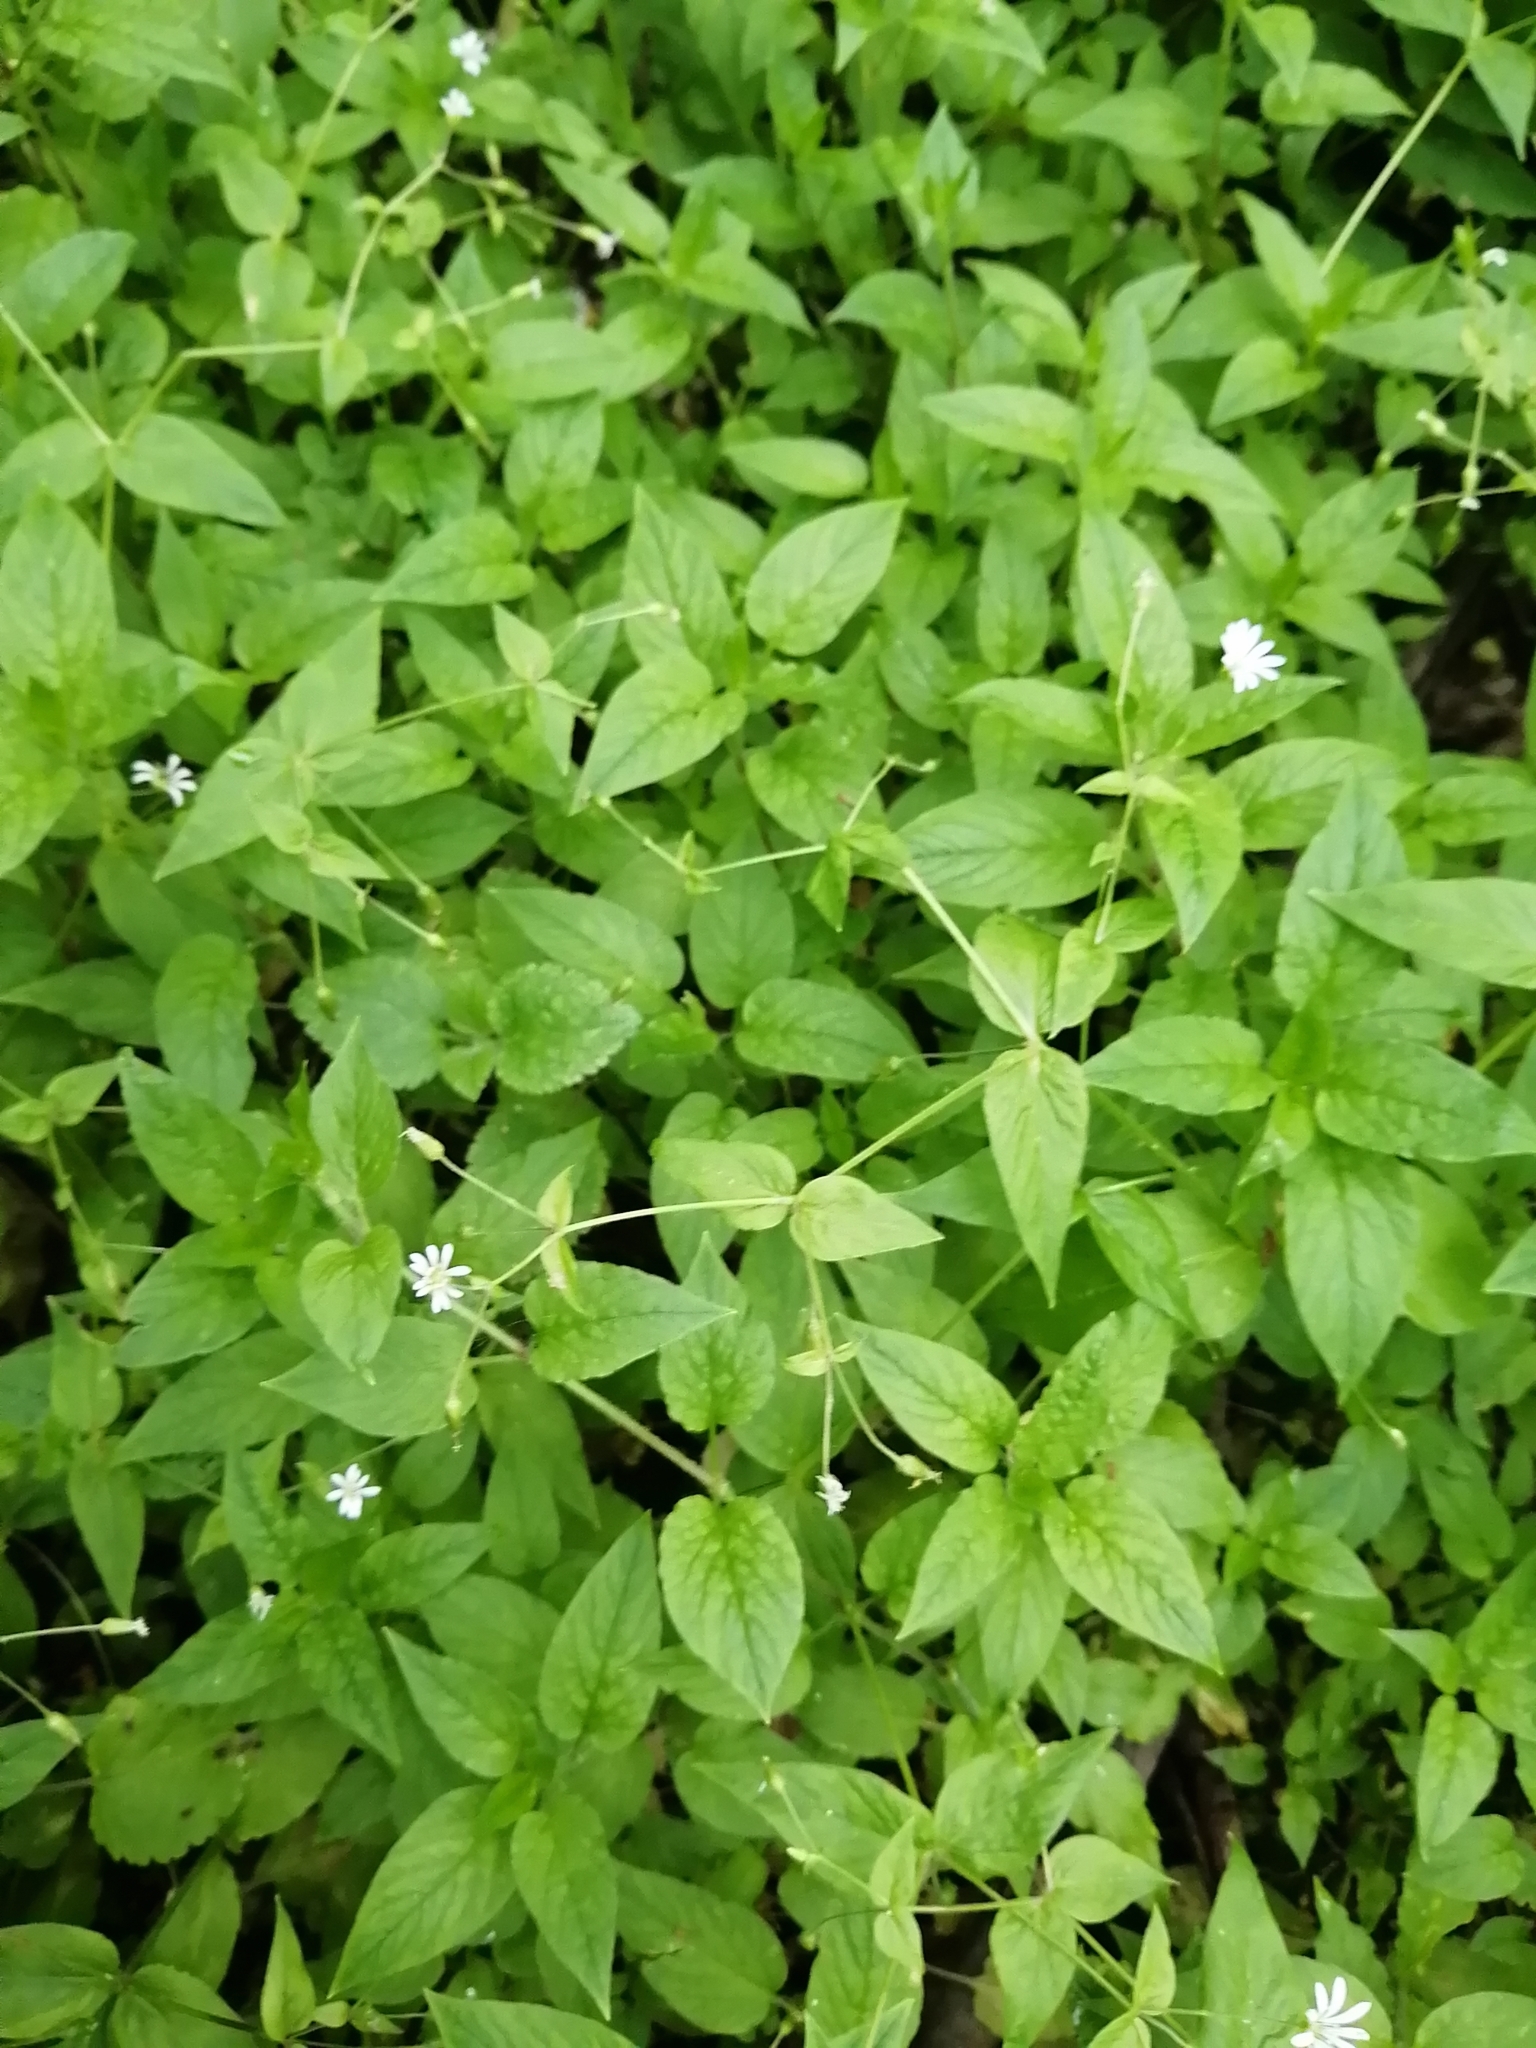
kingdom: Plantae
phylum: Tracheophyta
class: Magnoliopsida
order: Caryophyllales
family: Caryophyllaceae
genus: Stellaria
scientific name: Stellaria nemorum
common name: Wood stitchwort
